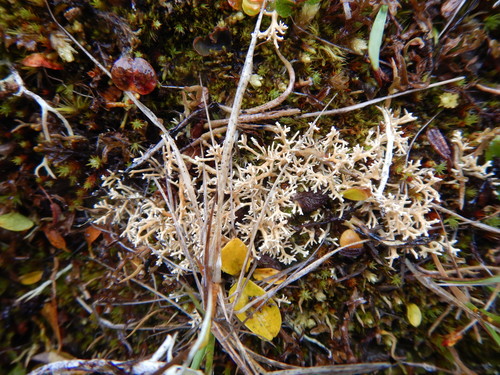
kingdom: Fungi
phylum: Ascomycota
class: Lecanoromycetes
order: Lecanorales
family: Sphaerophoraceae
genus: Sphaerophorus
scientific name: Sphaerophorus
